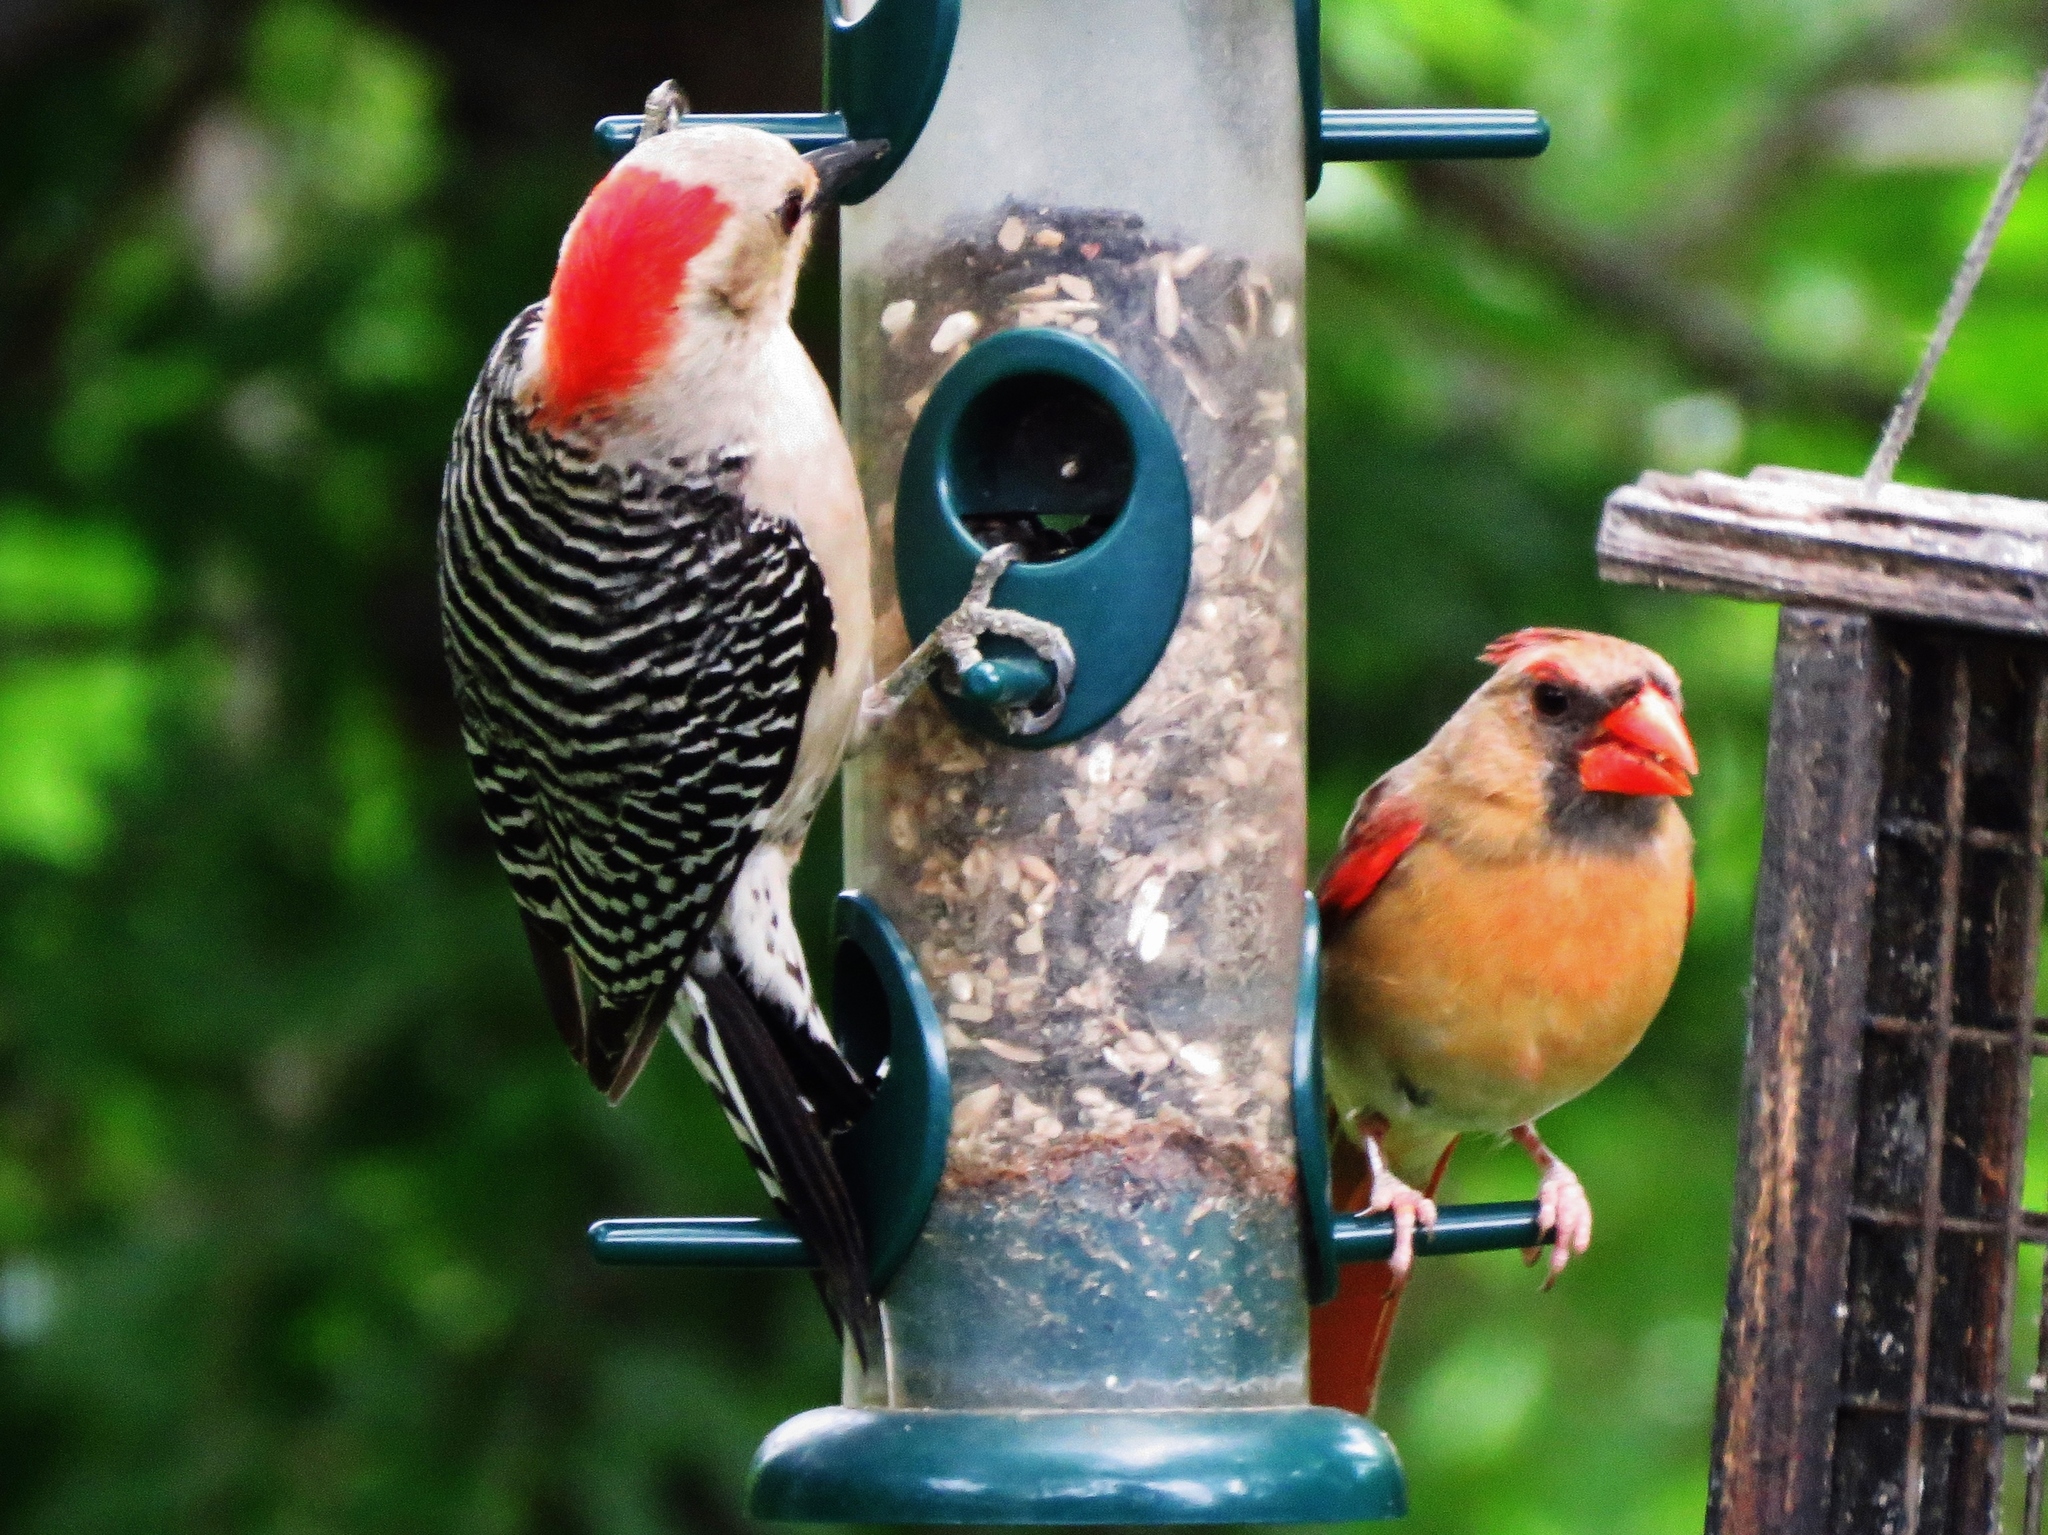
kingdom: Animalia
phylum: Chordata
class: Aves
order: Piciformes
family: Picidae
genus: Melanerpes
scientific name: Melanerpes carolinus
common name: Red-bellied woodpecker
